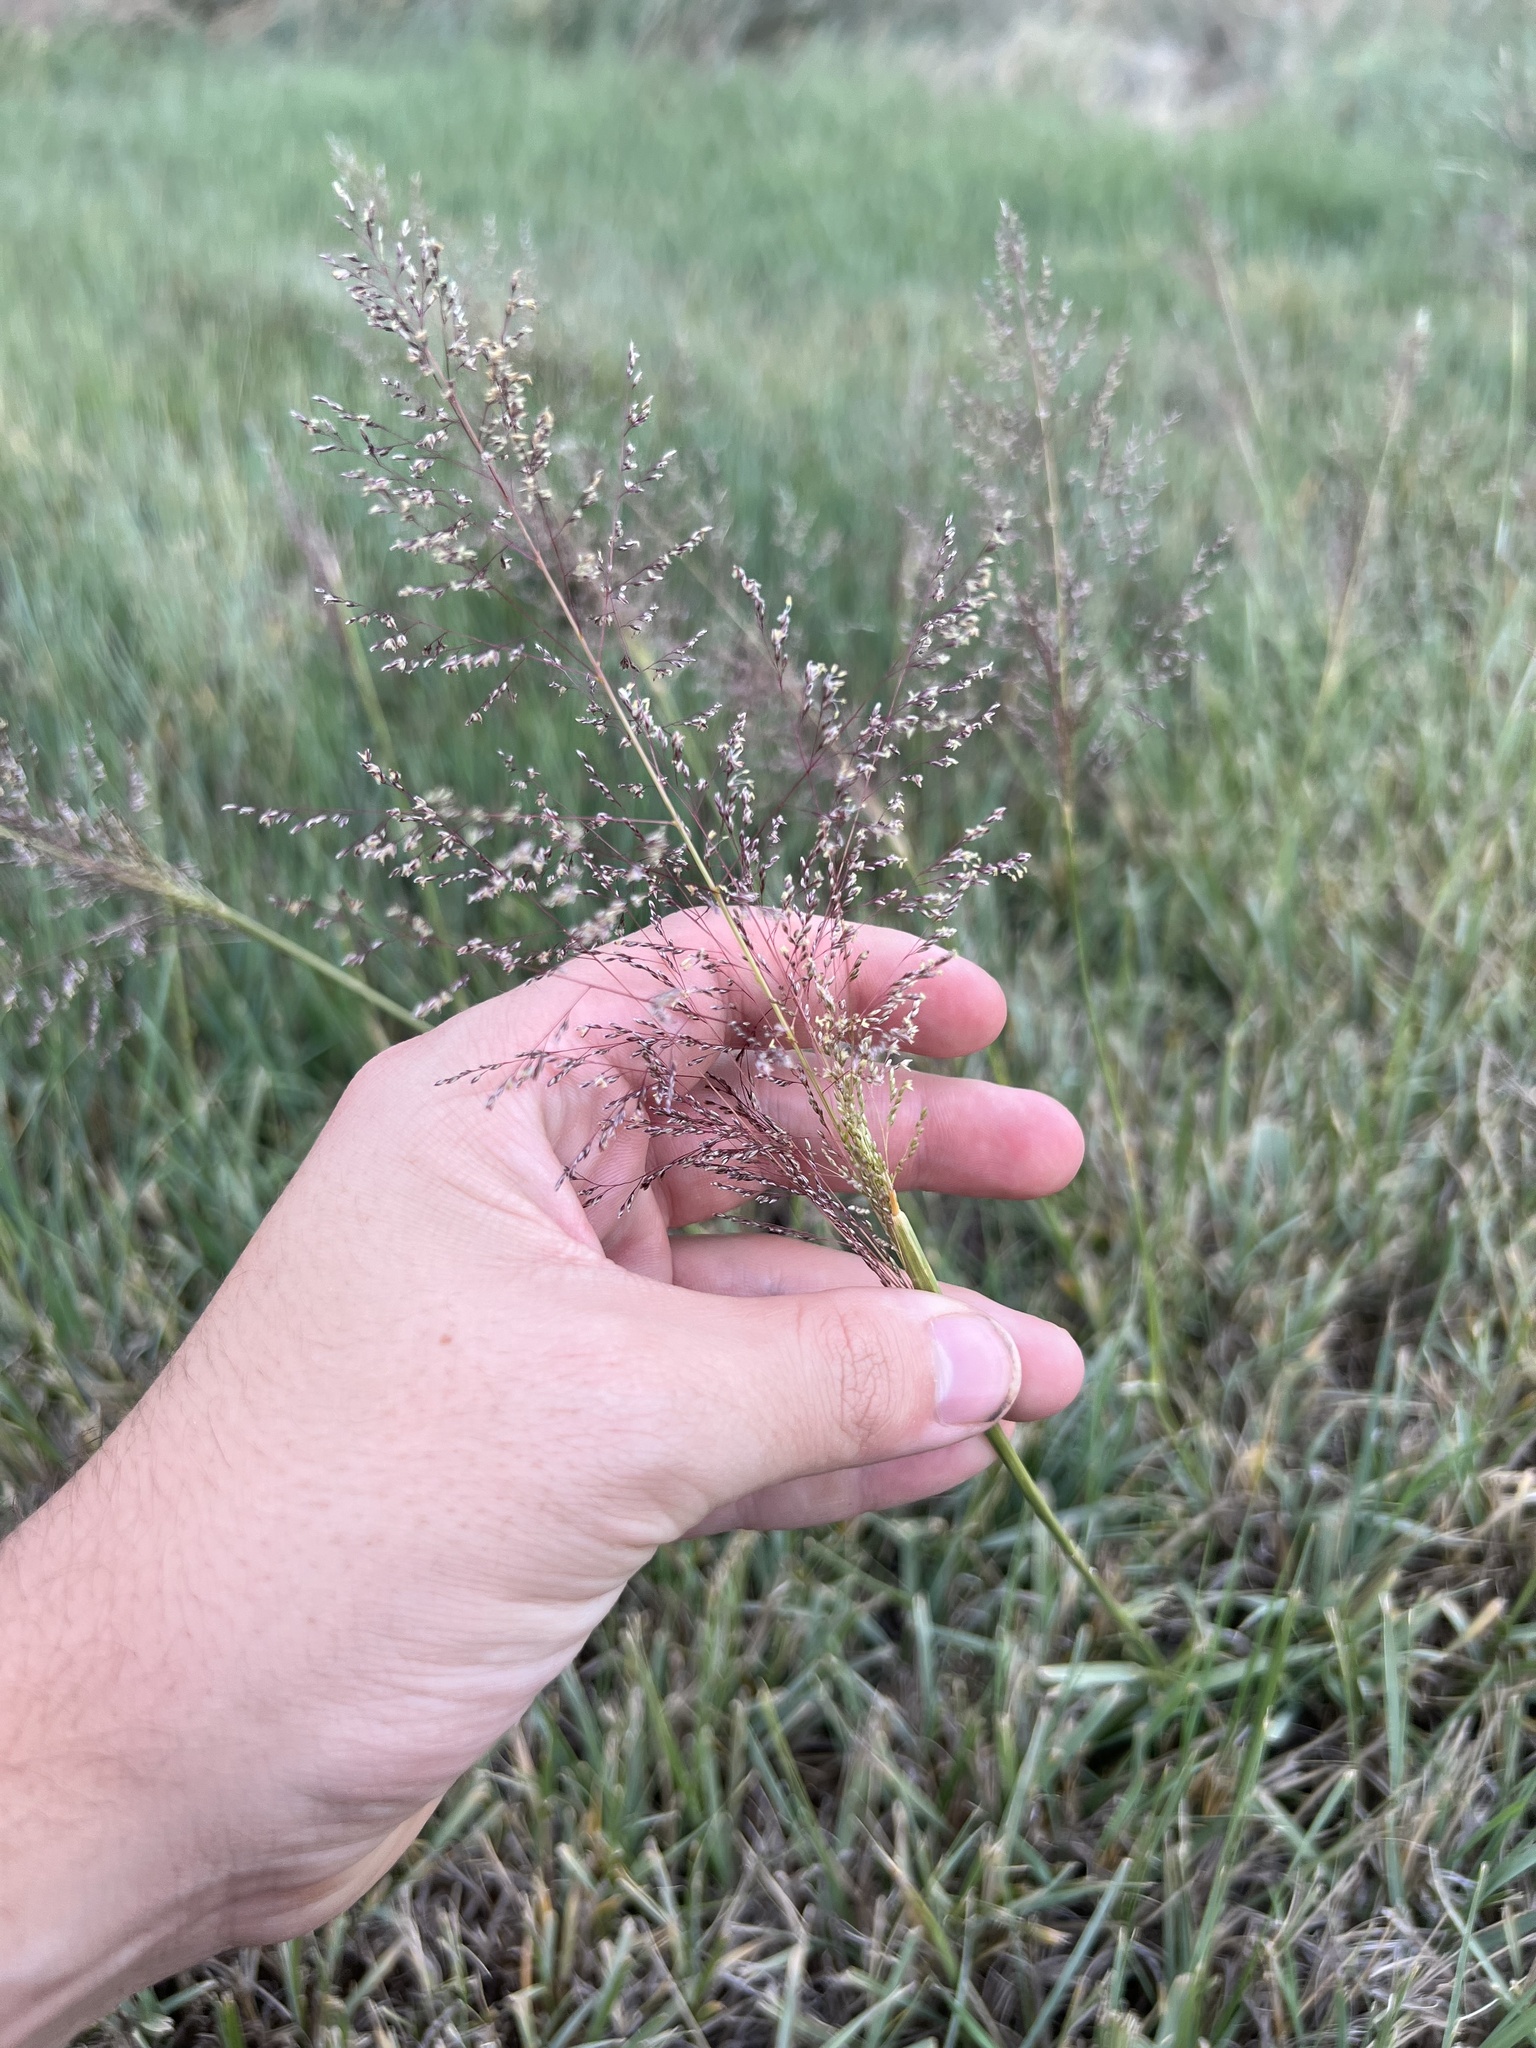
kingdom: Plantae
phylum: Tracheophyta
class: Liliopsida
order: Poales
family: Poaceae
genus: Sporobolus
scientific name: Sporobolus airoides
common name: Alkali sacaton
